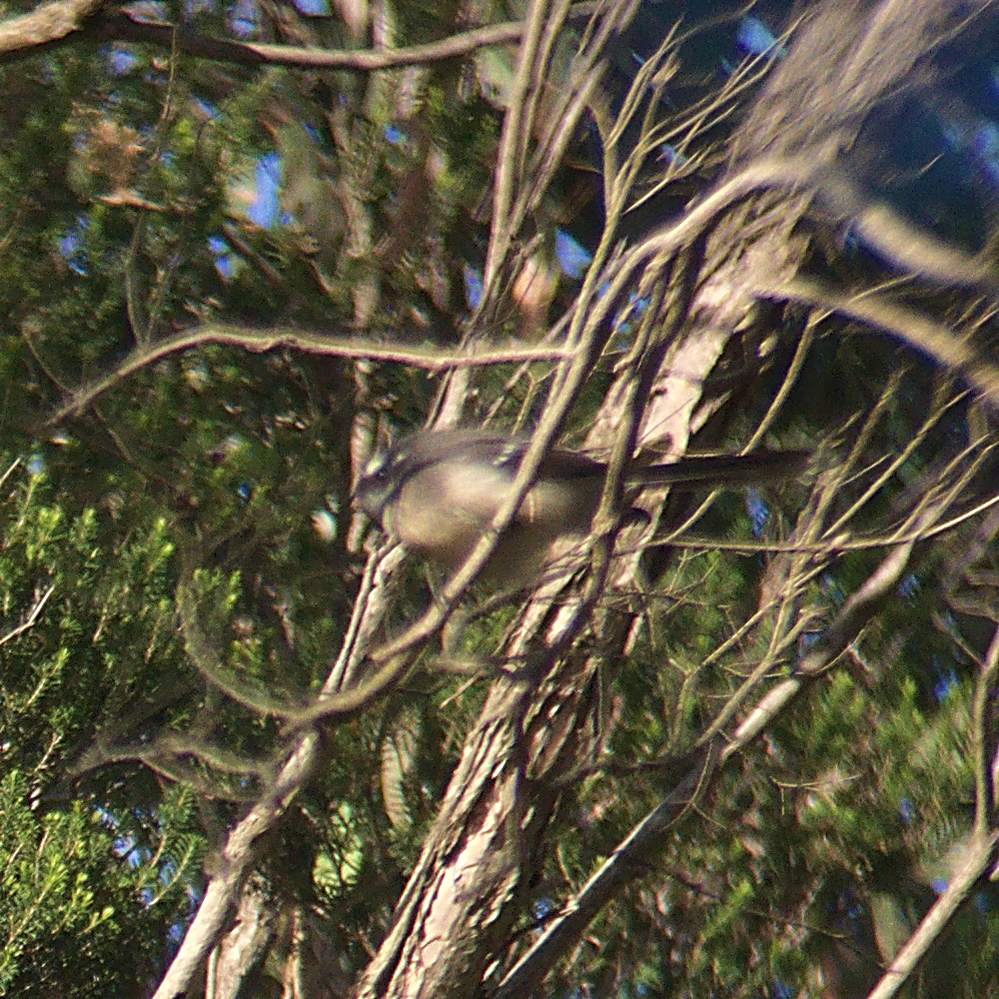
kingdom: Animalia
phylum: Chordata
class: Aves
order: Passeriformes
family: Rhipiduridae
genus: Rhipidura
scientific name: Rhipidura albiscapa
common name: Grey fantail
